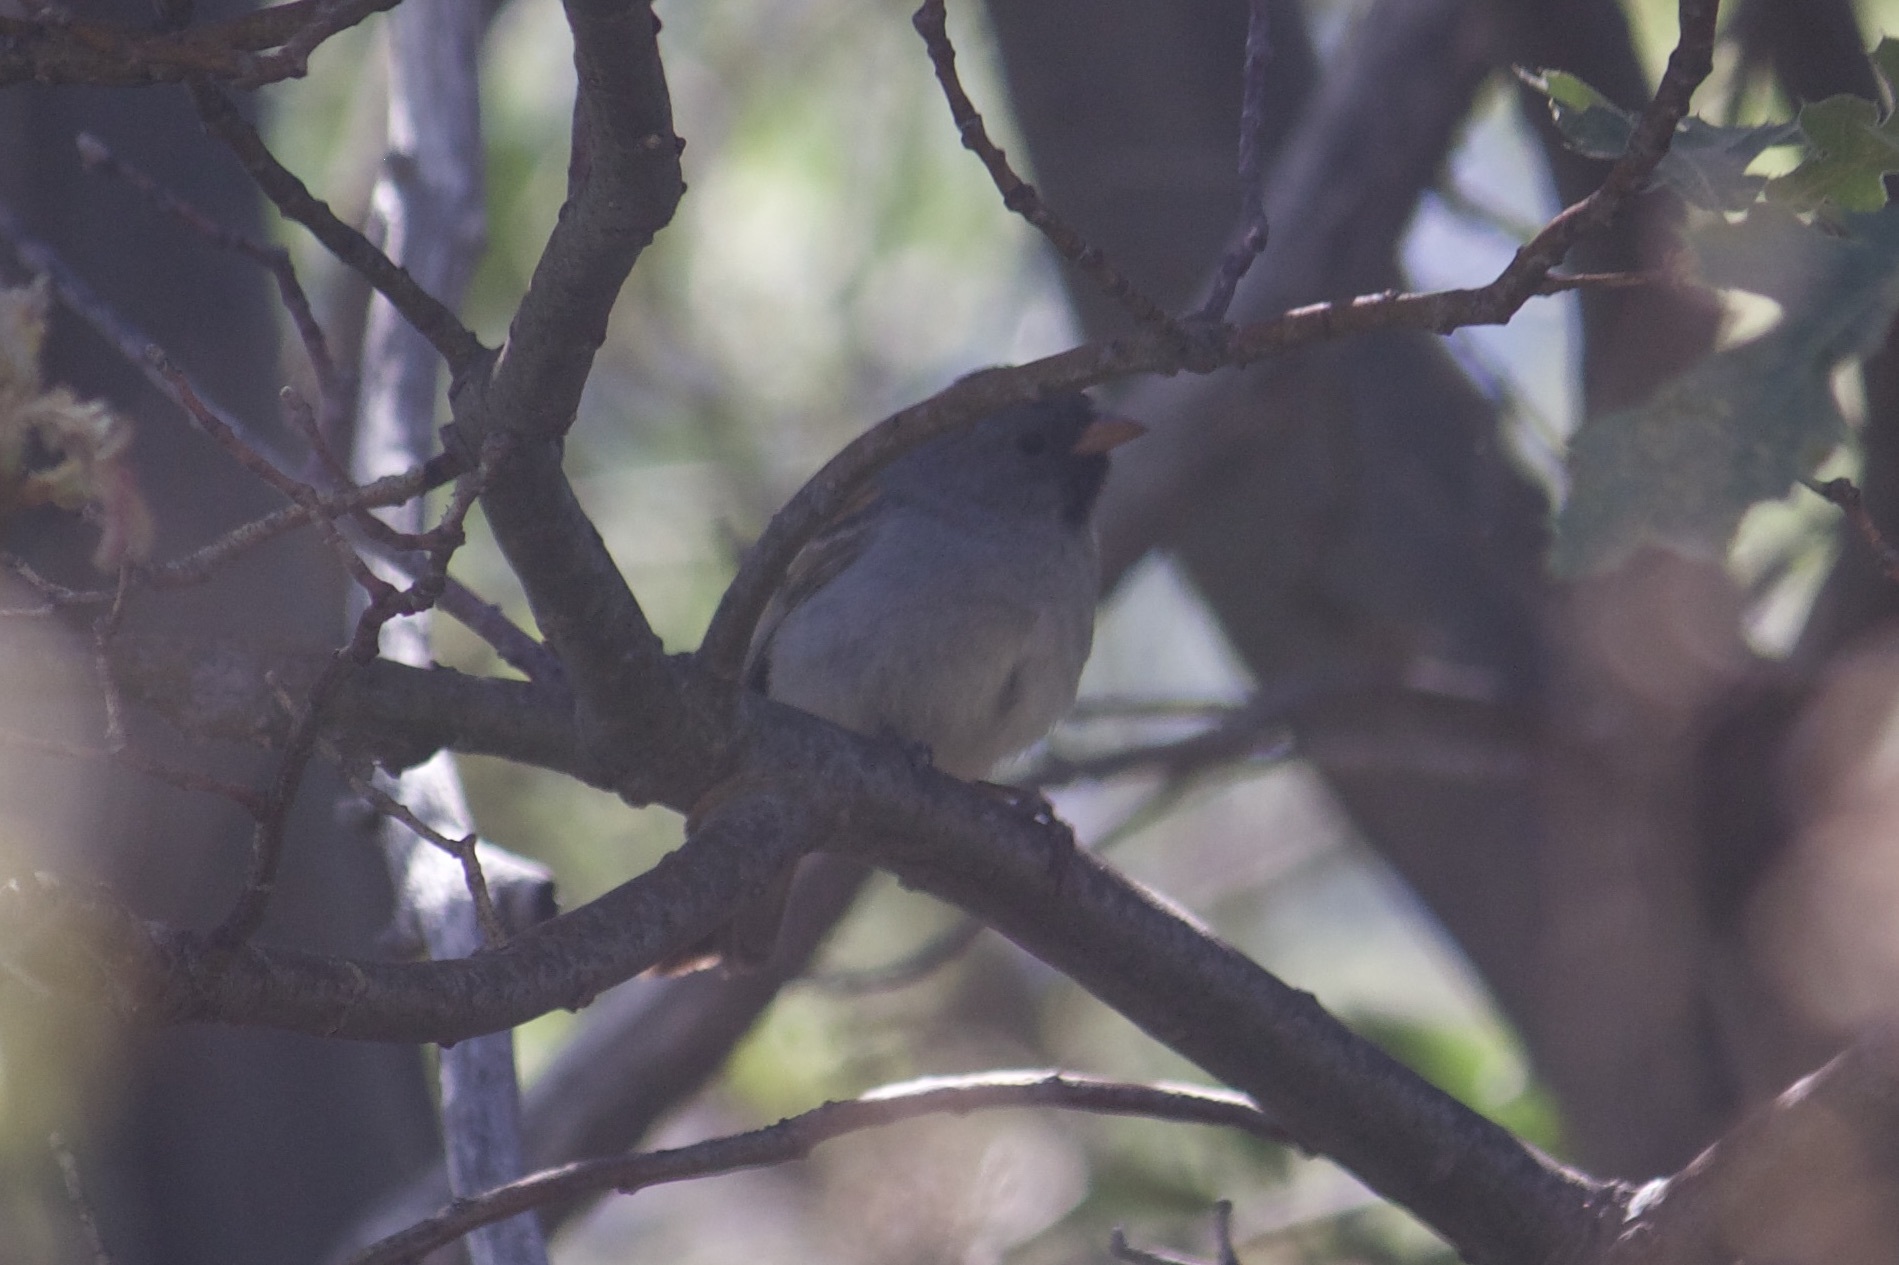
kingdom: Animalia
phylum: Chordata
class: Aves
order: Passeriformes
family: Passerellidae
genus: Spizella
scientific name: Spizella atrogularis
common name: Black-chinned sparrow
